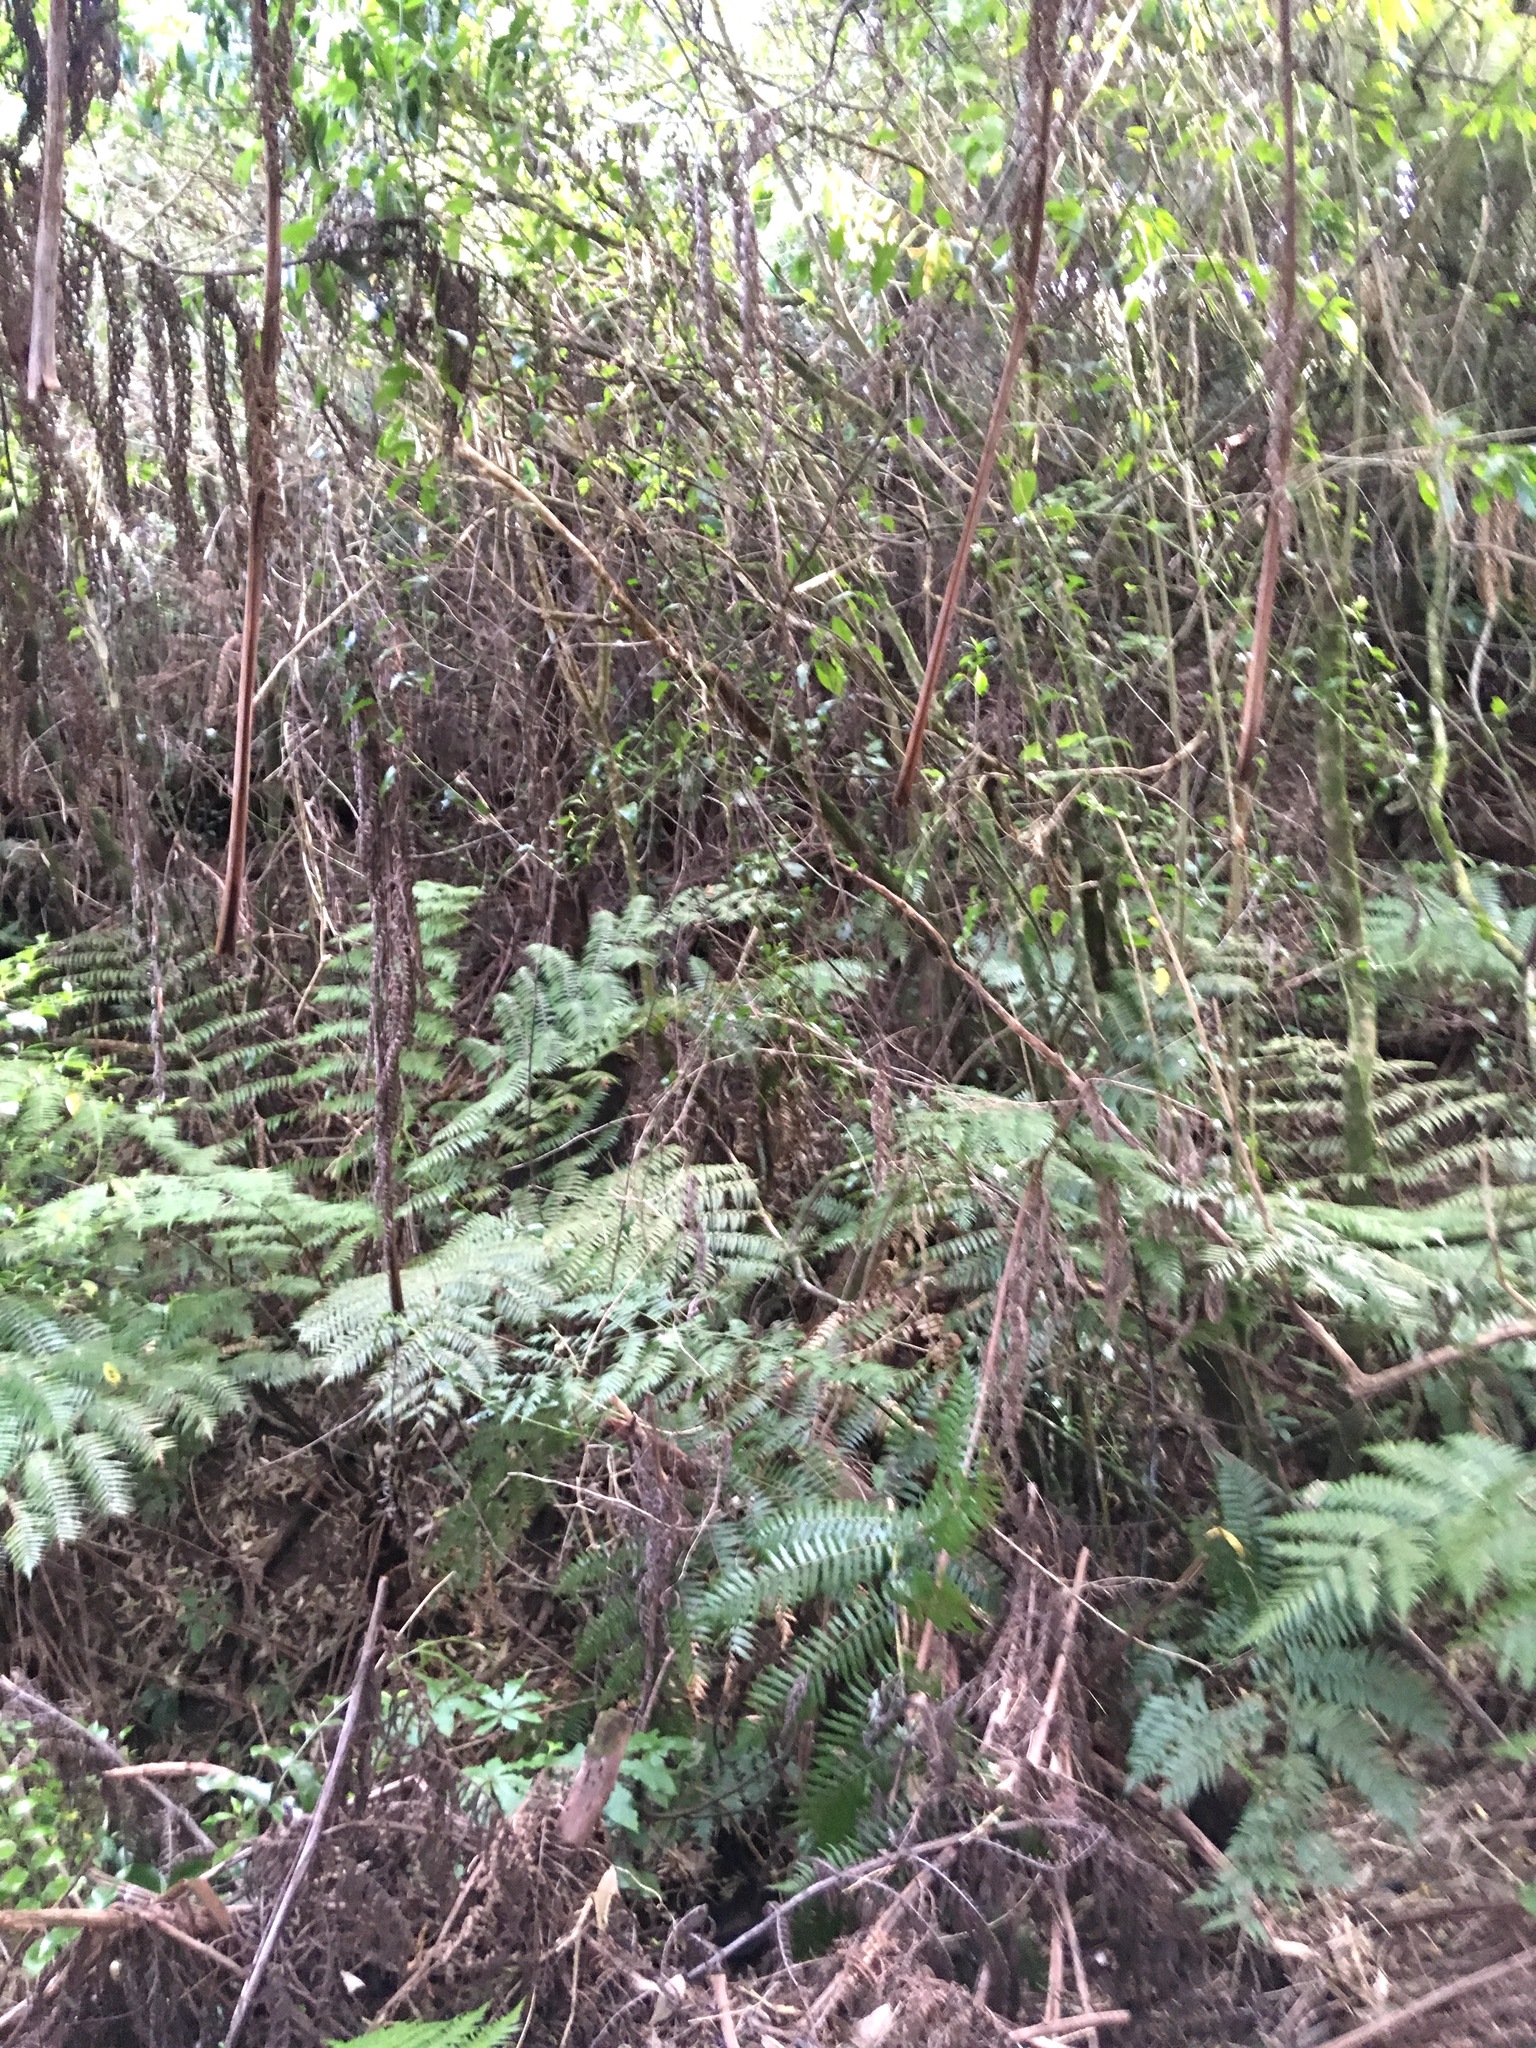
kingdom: Plantae
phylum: Tracheophyta
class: Magnoliopsida
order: Apiales
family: Araliaceae
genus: Schefflera
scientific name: Schefflera digitata
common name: Pate
